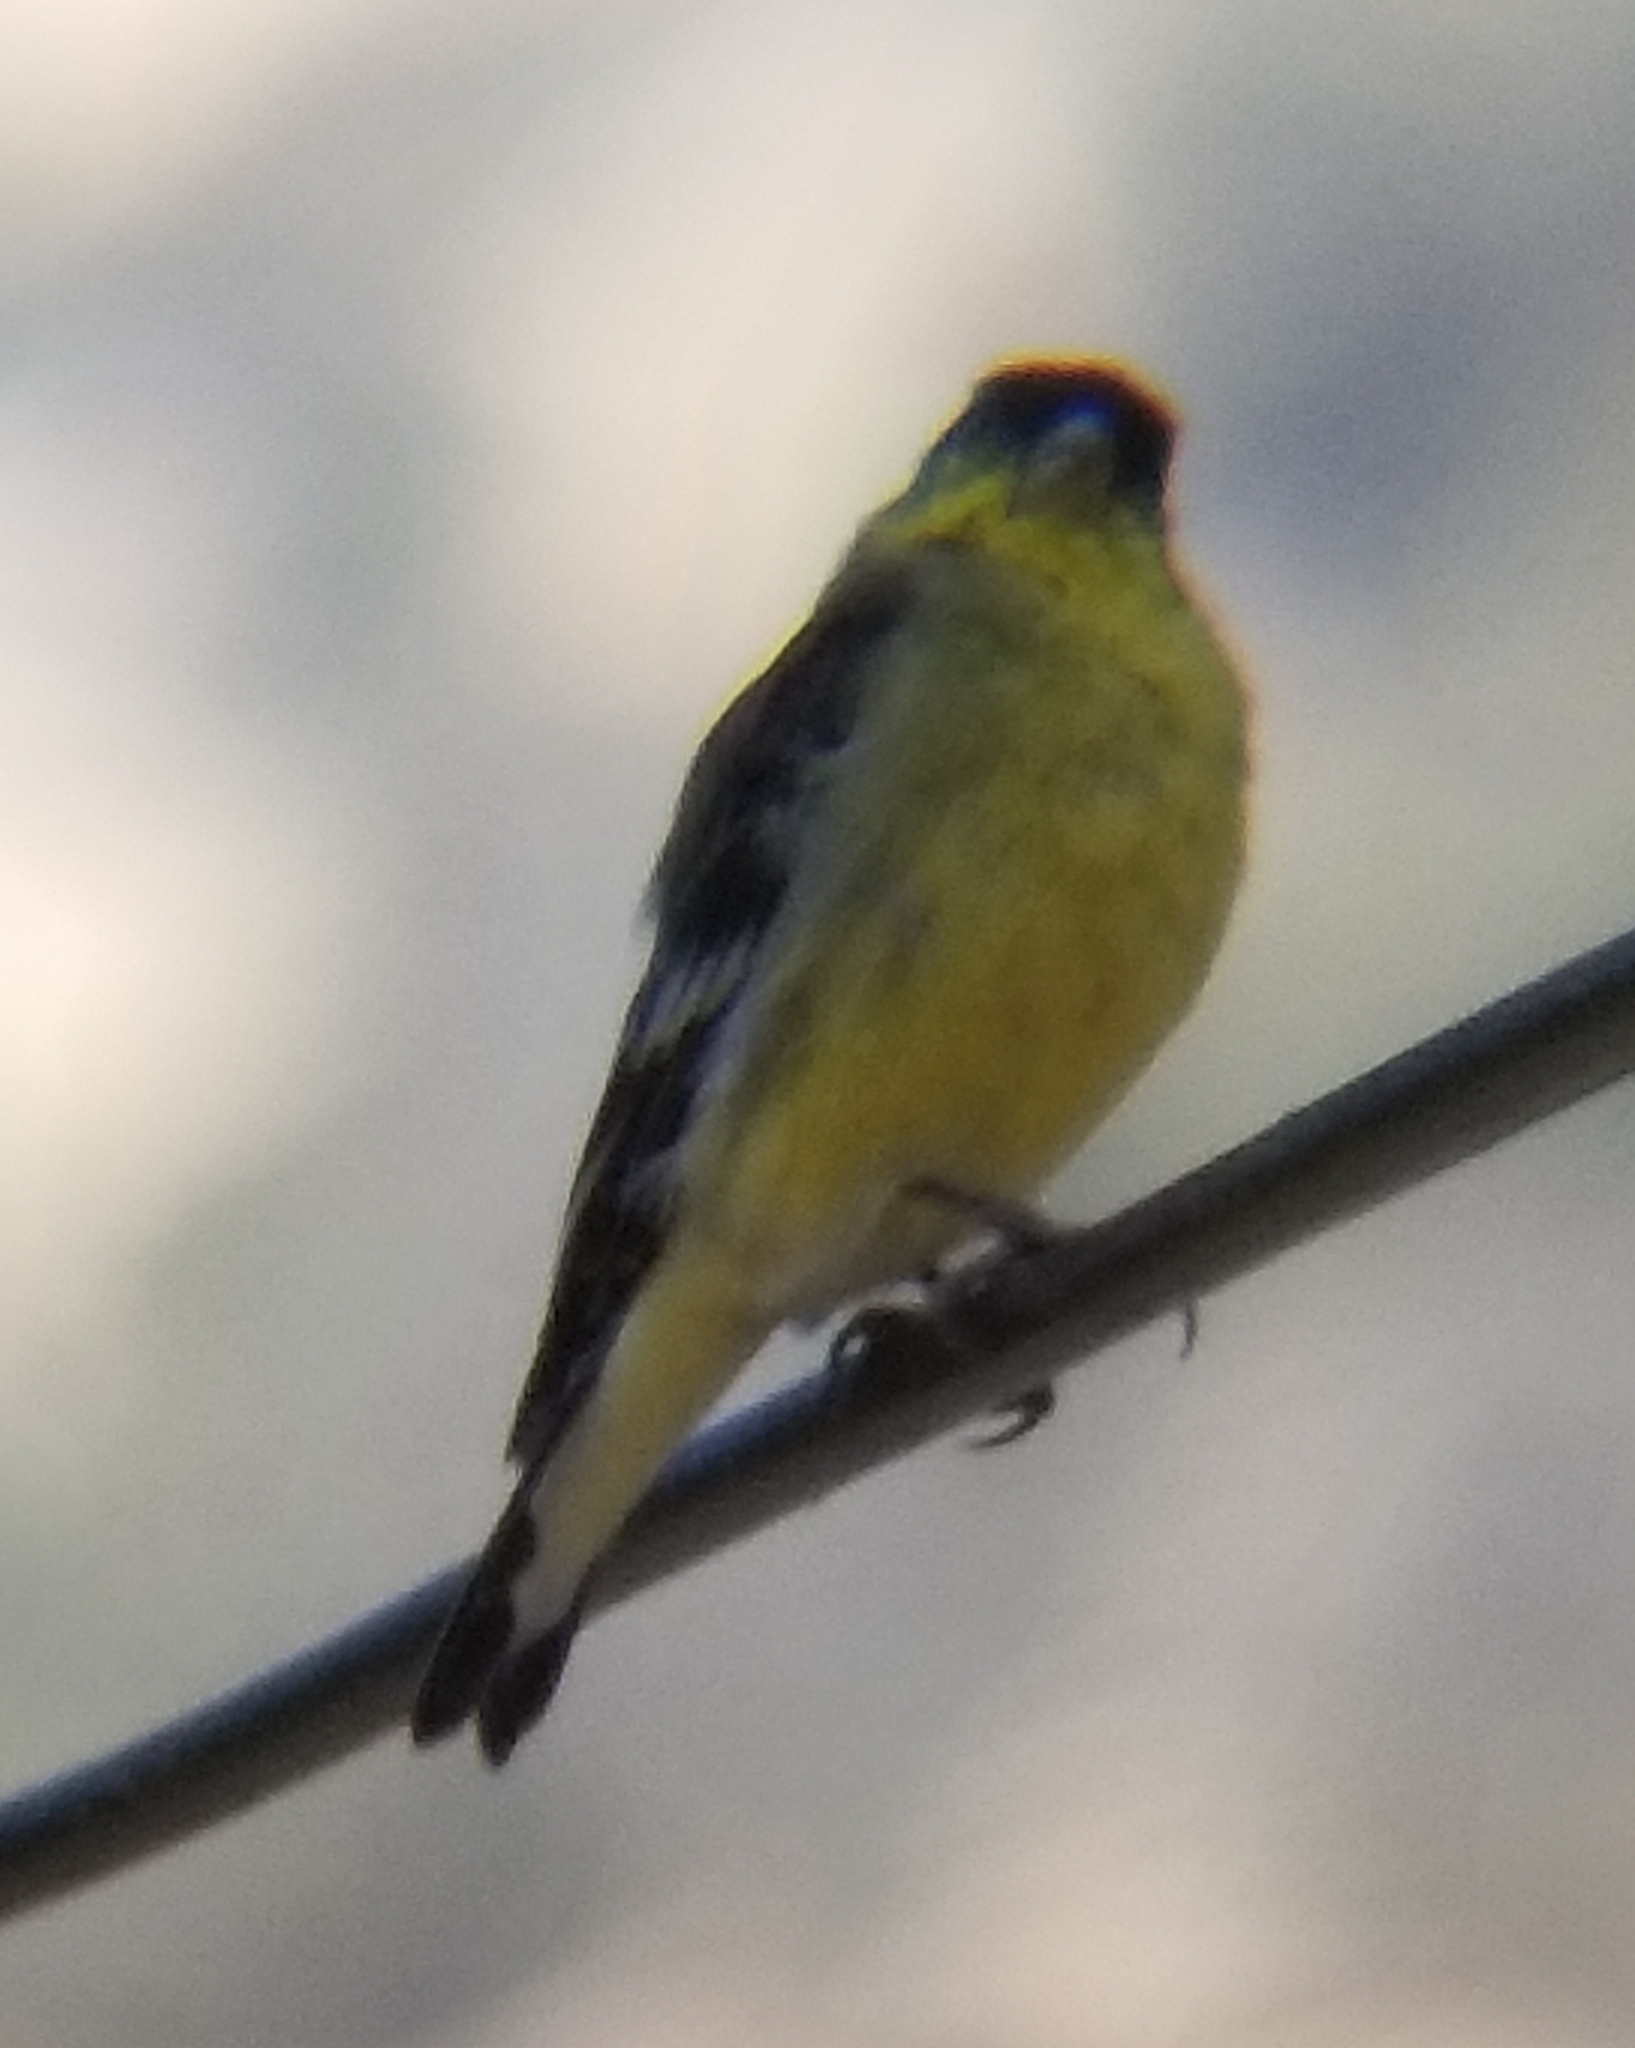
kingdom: Animalia
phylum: Chordata
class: Aves
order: Passeriformes
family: Fringillidae
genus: Spinus
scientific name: Spinus psaltria
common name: Lesser goldfinch
